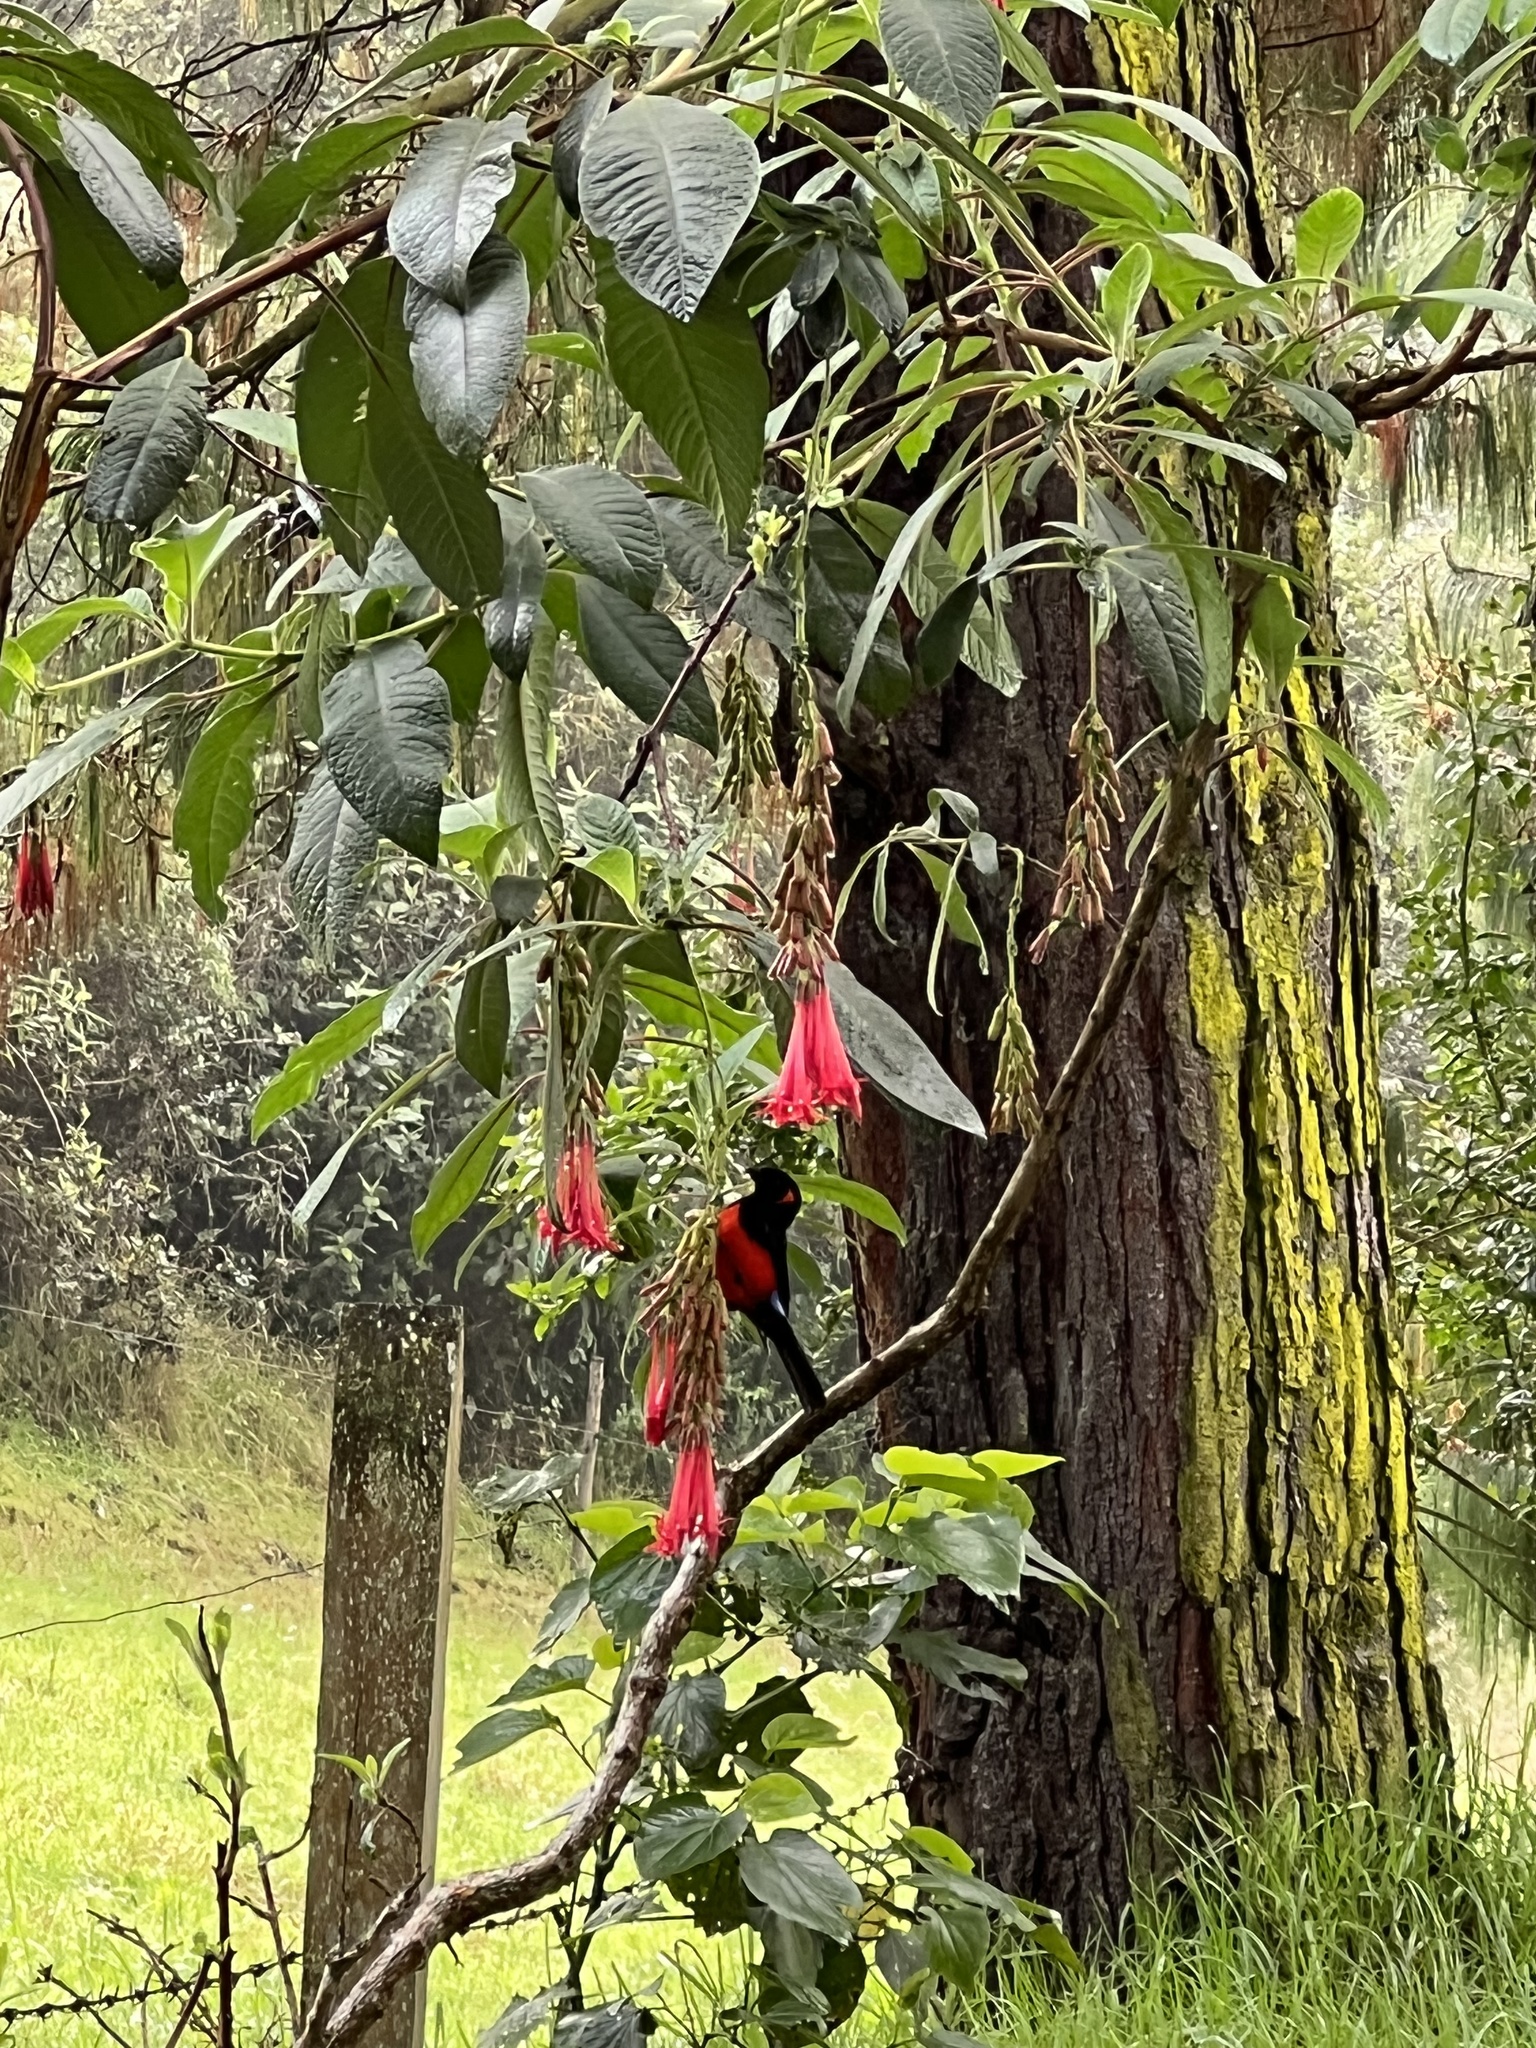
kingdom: Animalia
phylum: Chordata
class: Aves
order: Passeriformes
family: Thraupidae
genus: Anisognathus
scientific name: Anisognathus igniventris
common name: Scarlet-bellied mountain tanager
